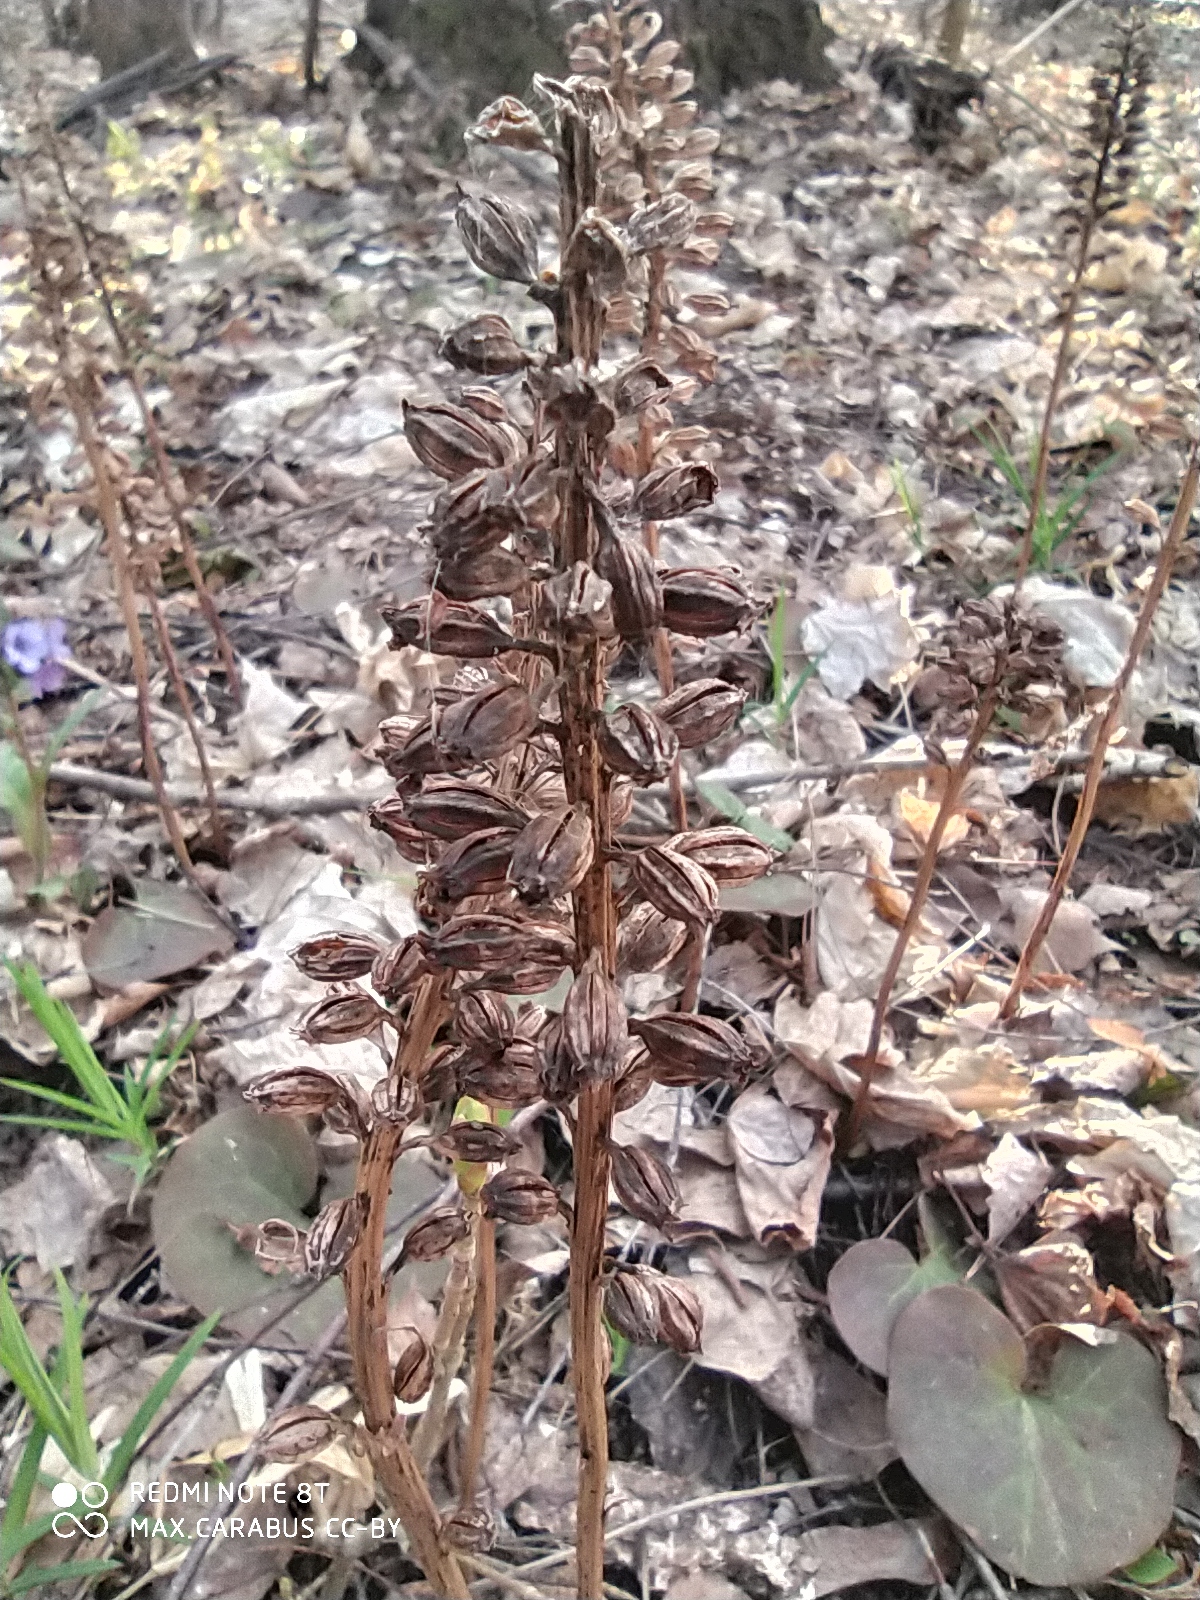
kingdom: Plantae
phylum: Tracheophyta
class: Liliopsida
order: Asparagales
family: Orchidaceae
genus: Neottia
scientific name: Neottia nidus-avis
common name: Bird's-nest orchid
